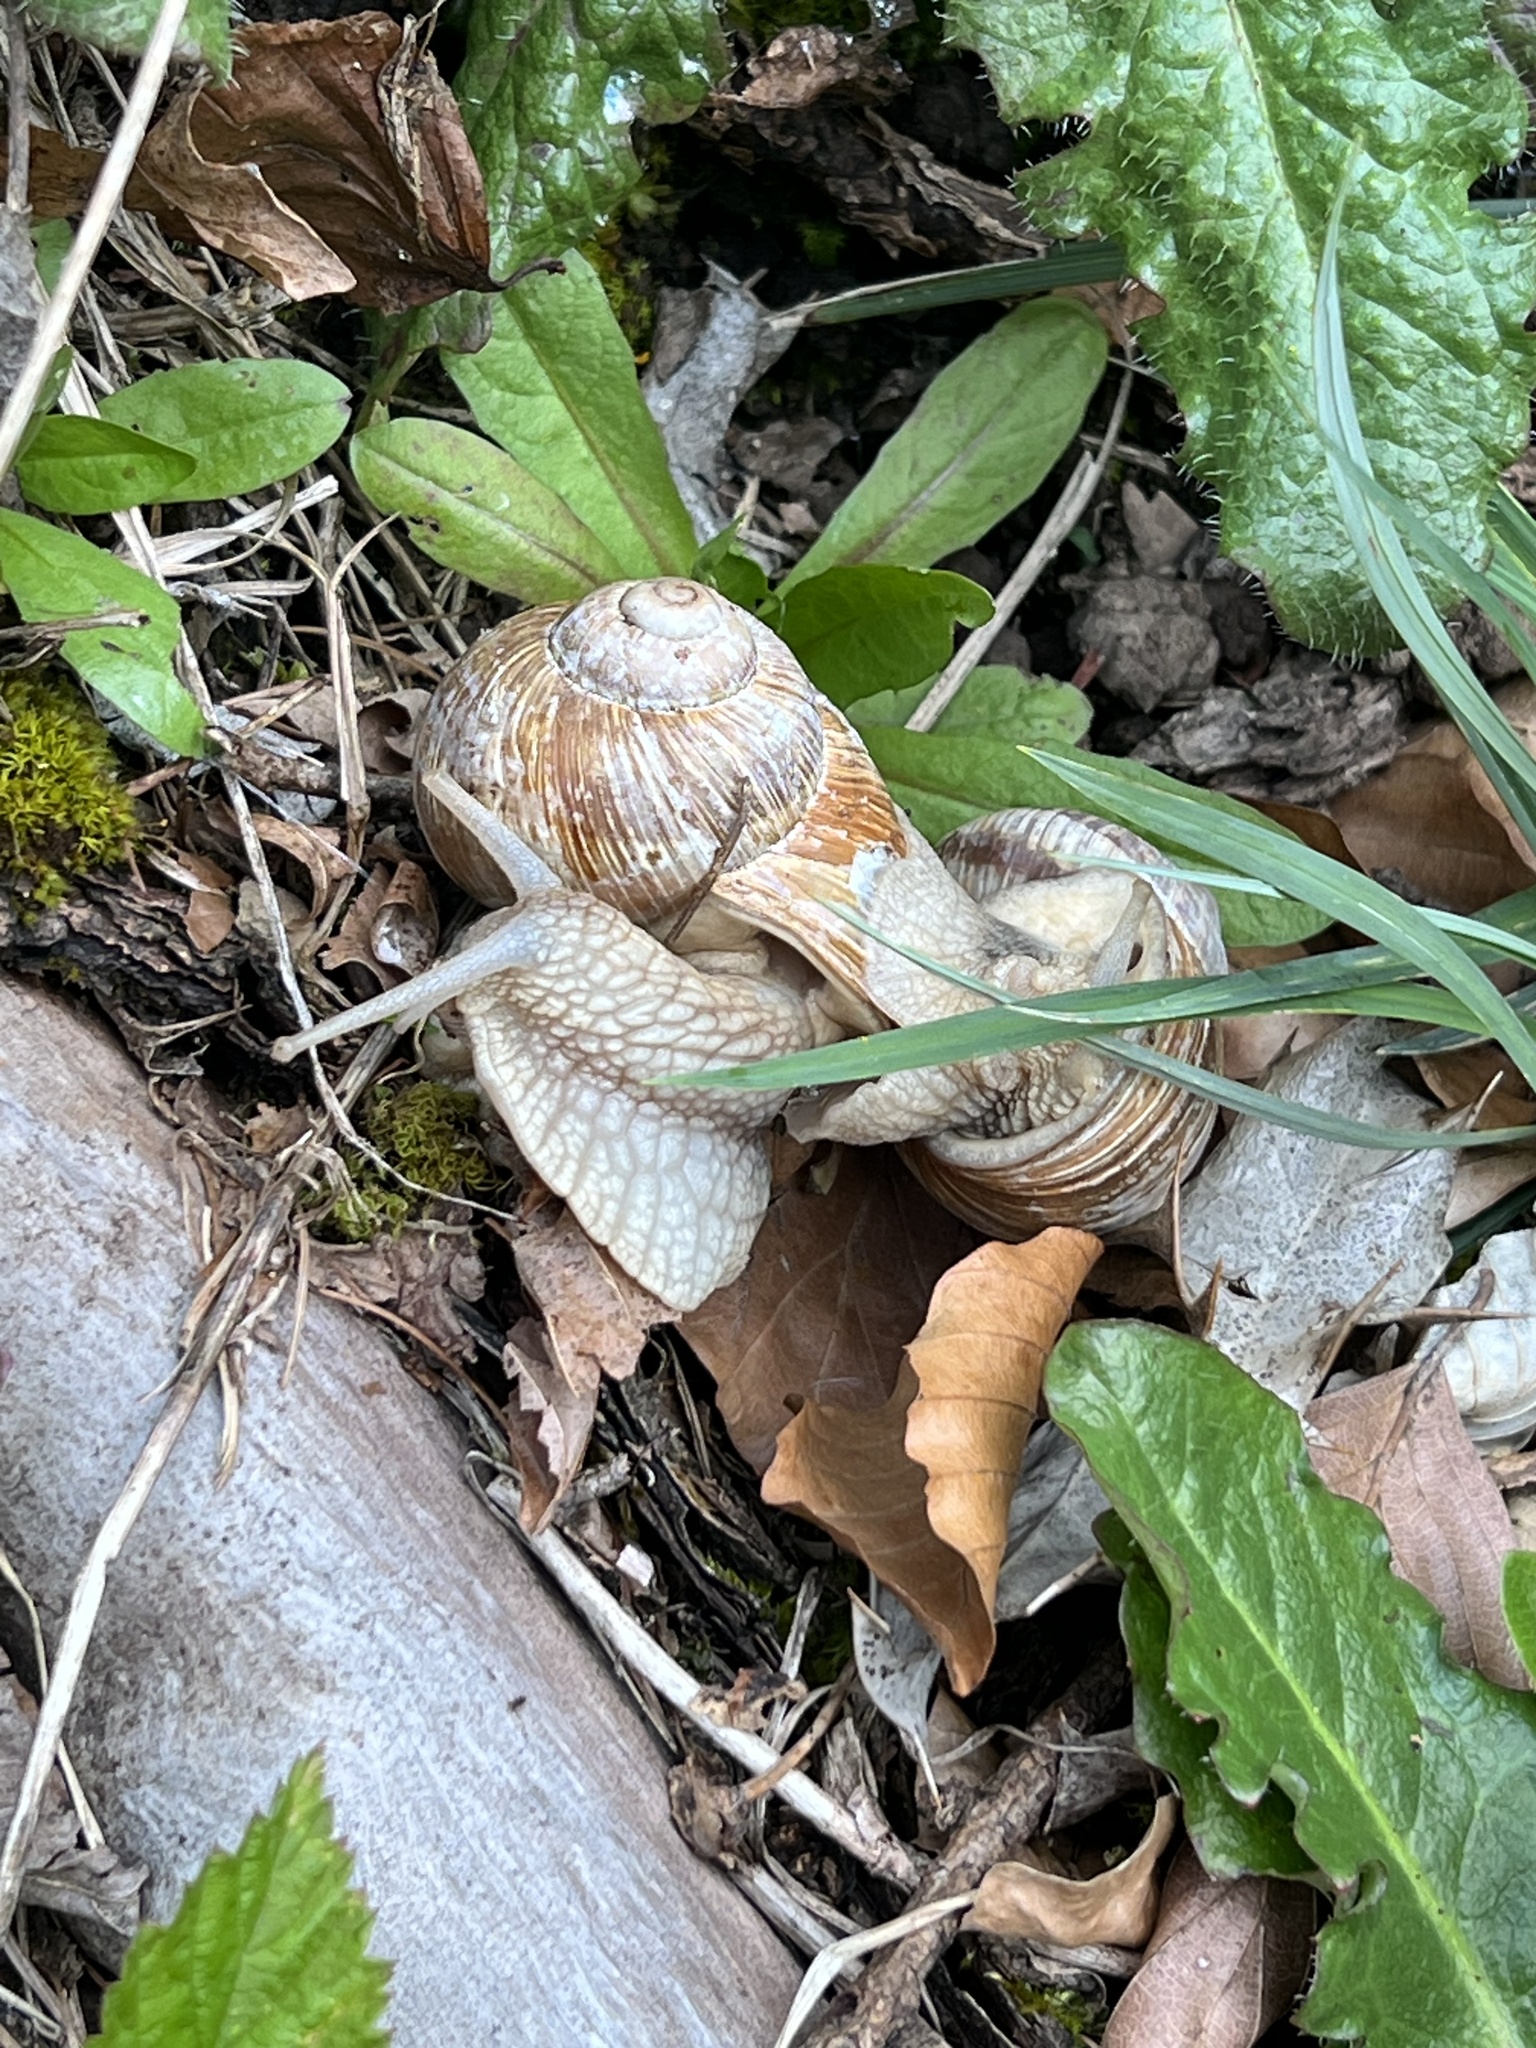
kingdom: Animalia
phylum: Mollusca
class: Gastropoda
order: Stylommatophora
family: Helicidae
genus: Helix
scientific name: Helix pomatia
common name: Roman snail
